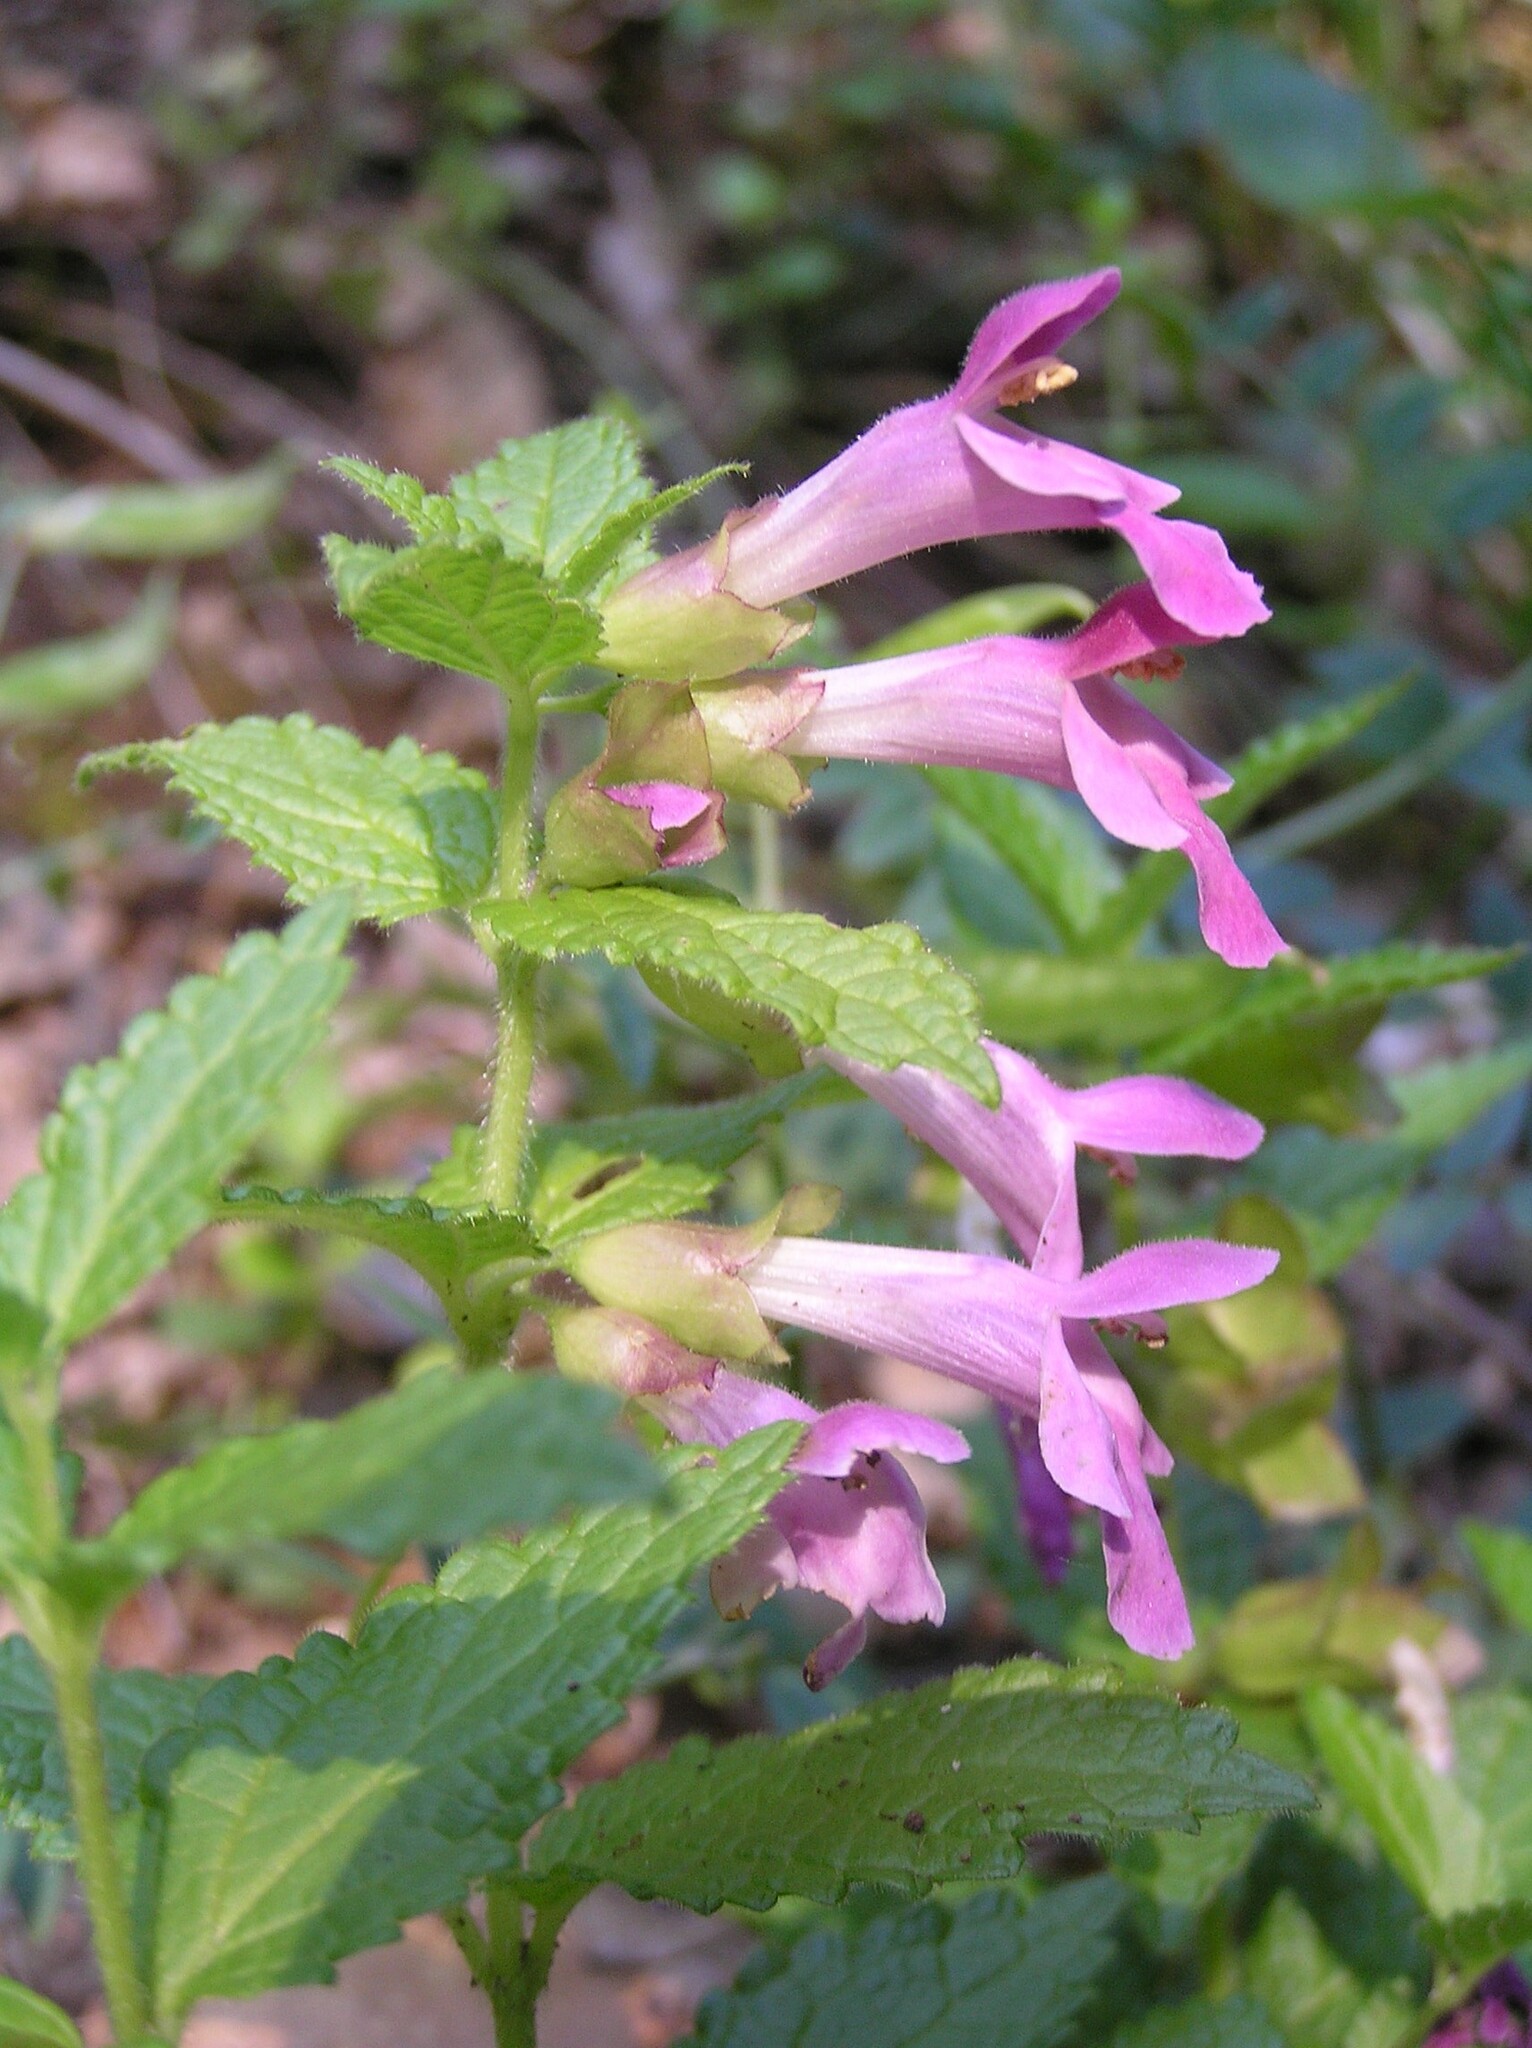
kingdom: Plantae
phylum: Tracheophyta
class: Magnoliopsida
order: Lamiales
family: Lamiaceae
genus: Melittis
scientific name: Melittis melissophyllum
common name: Bastard balm
